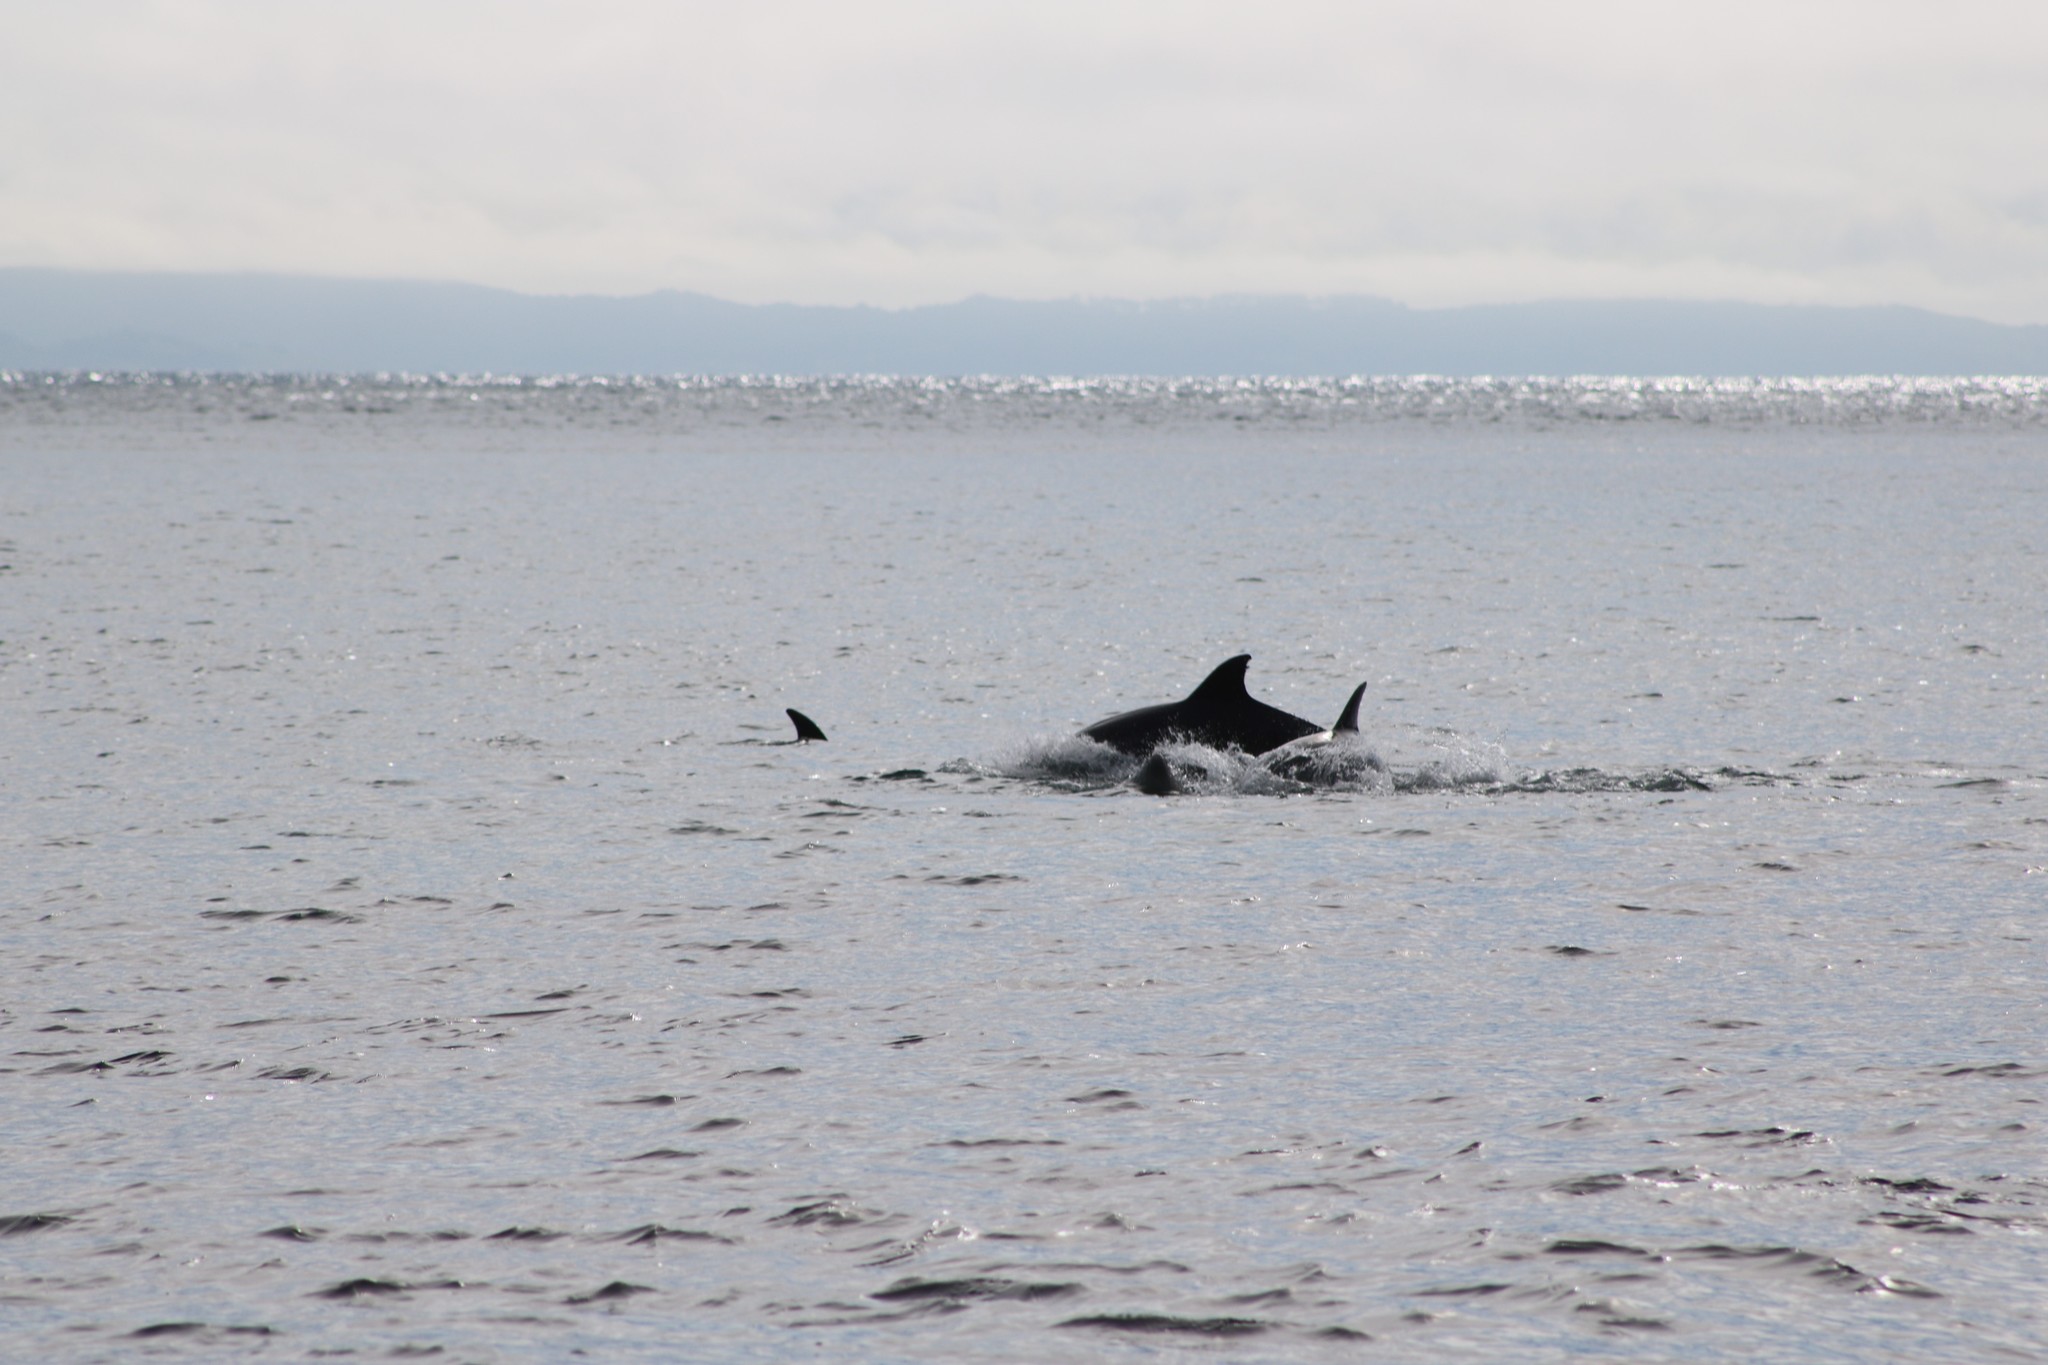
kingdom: Animalia
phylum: Chordata
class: Mammalia
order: Cetacea
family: Delphinidae
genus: Tursiops
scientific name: Tursiops truncatus
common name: Bottlenose dolphin
